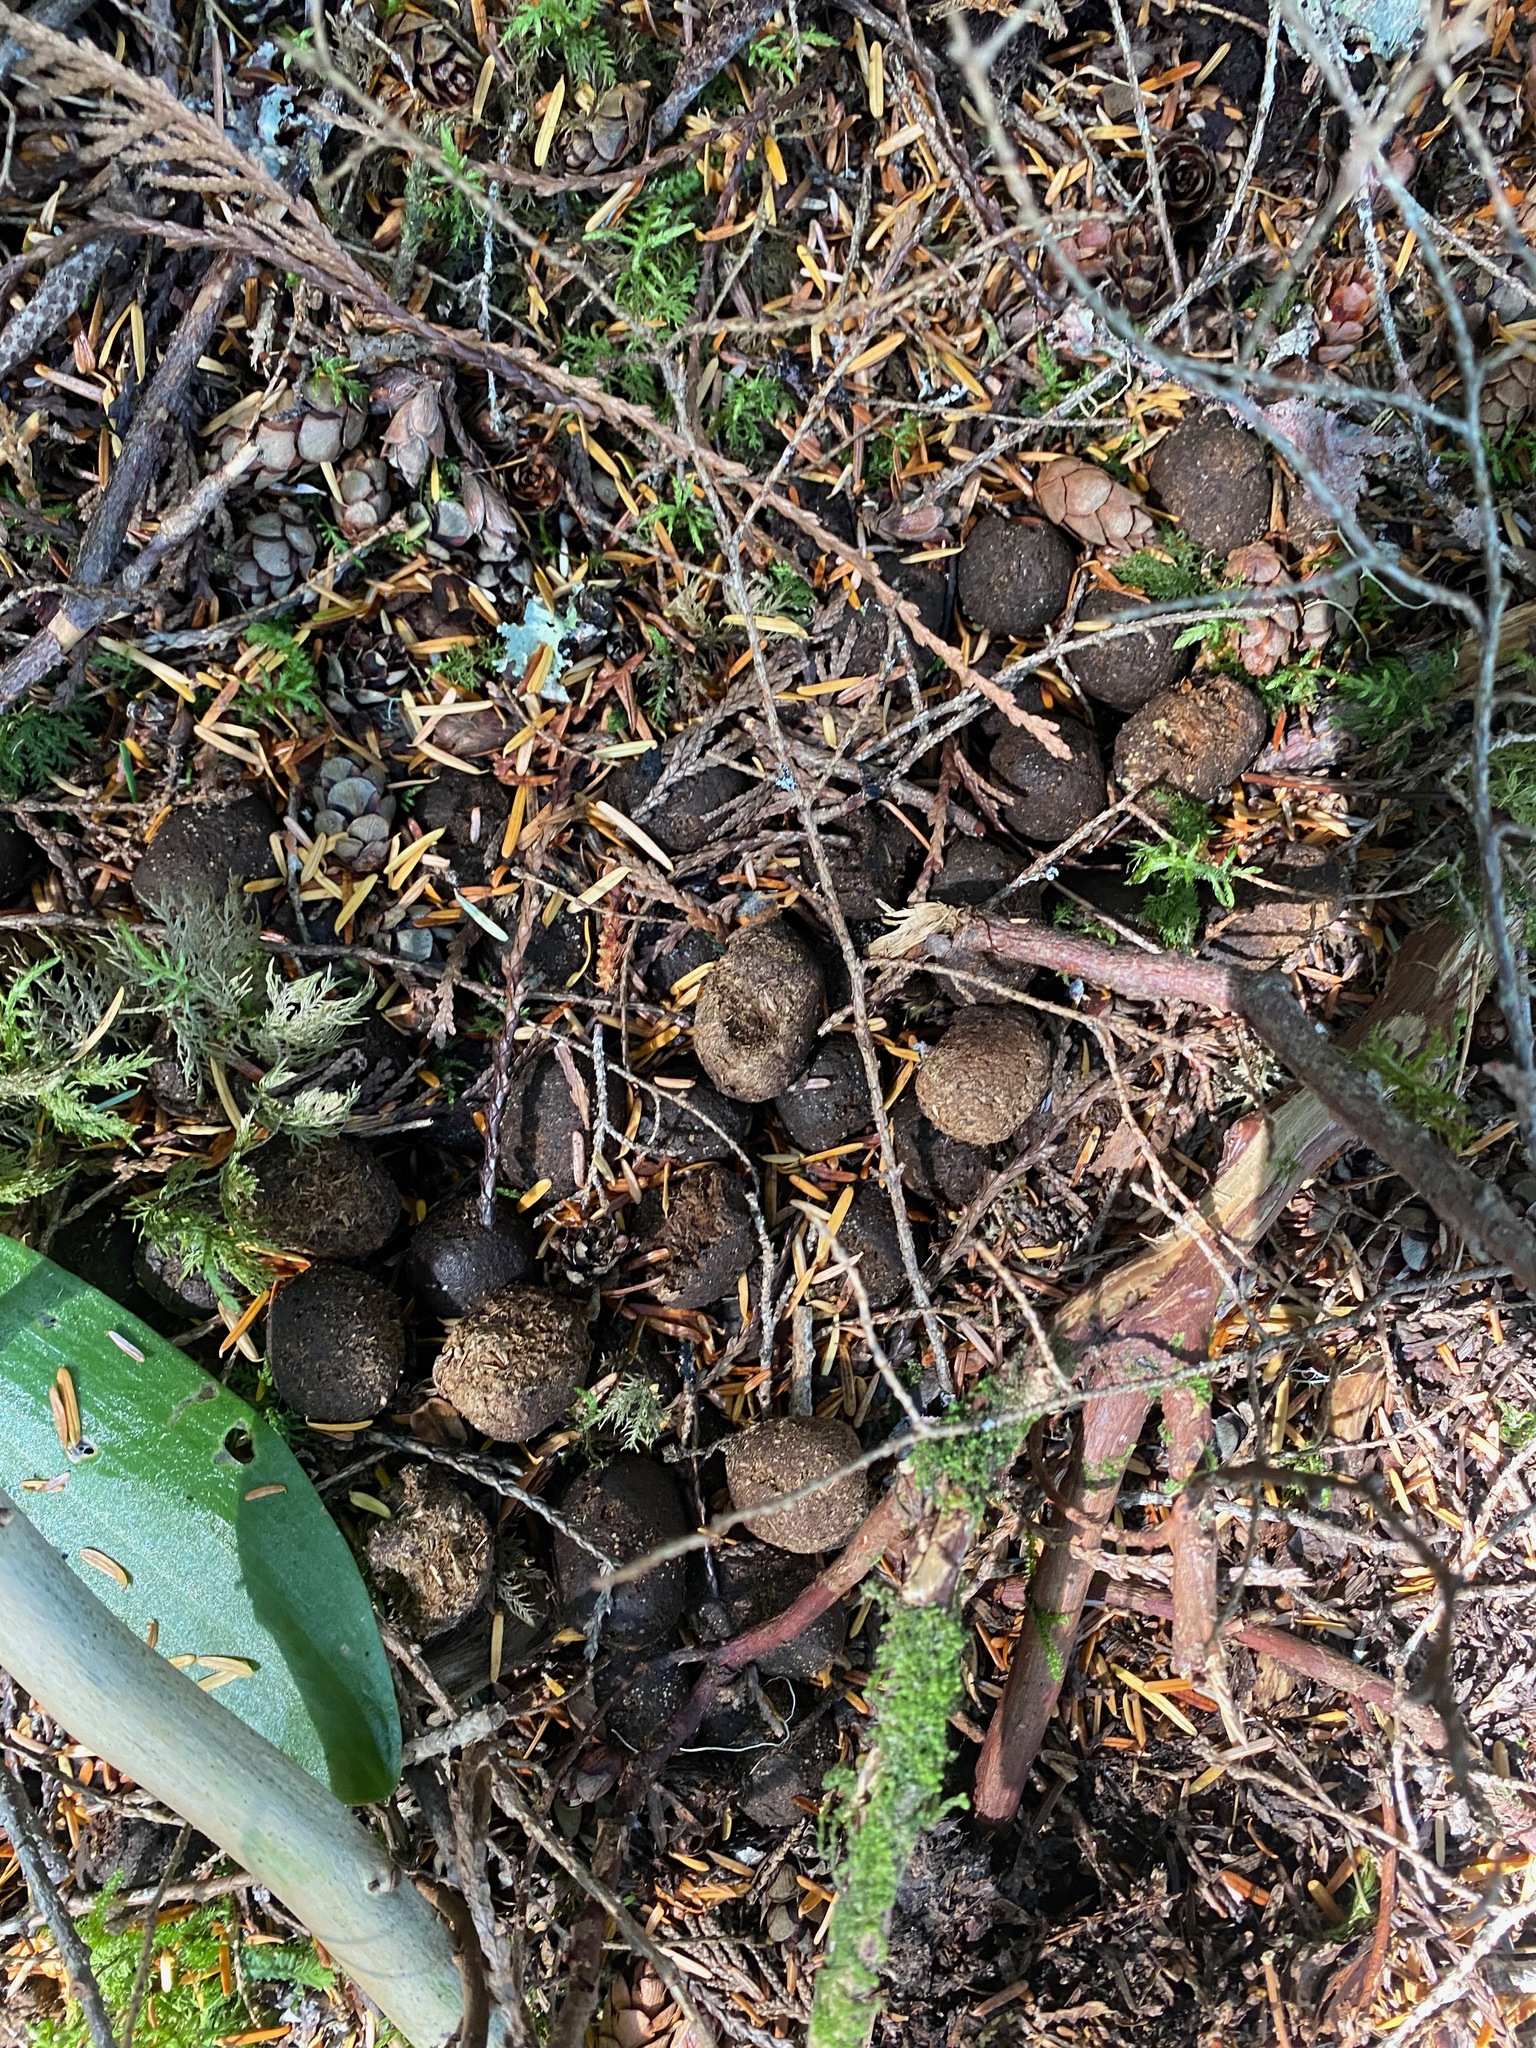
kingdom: Animalia
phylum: Chordata
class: Mammalia
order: Artiodactyla
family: Cervidae
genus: Alces
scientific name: Alces alces
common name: Moose
